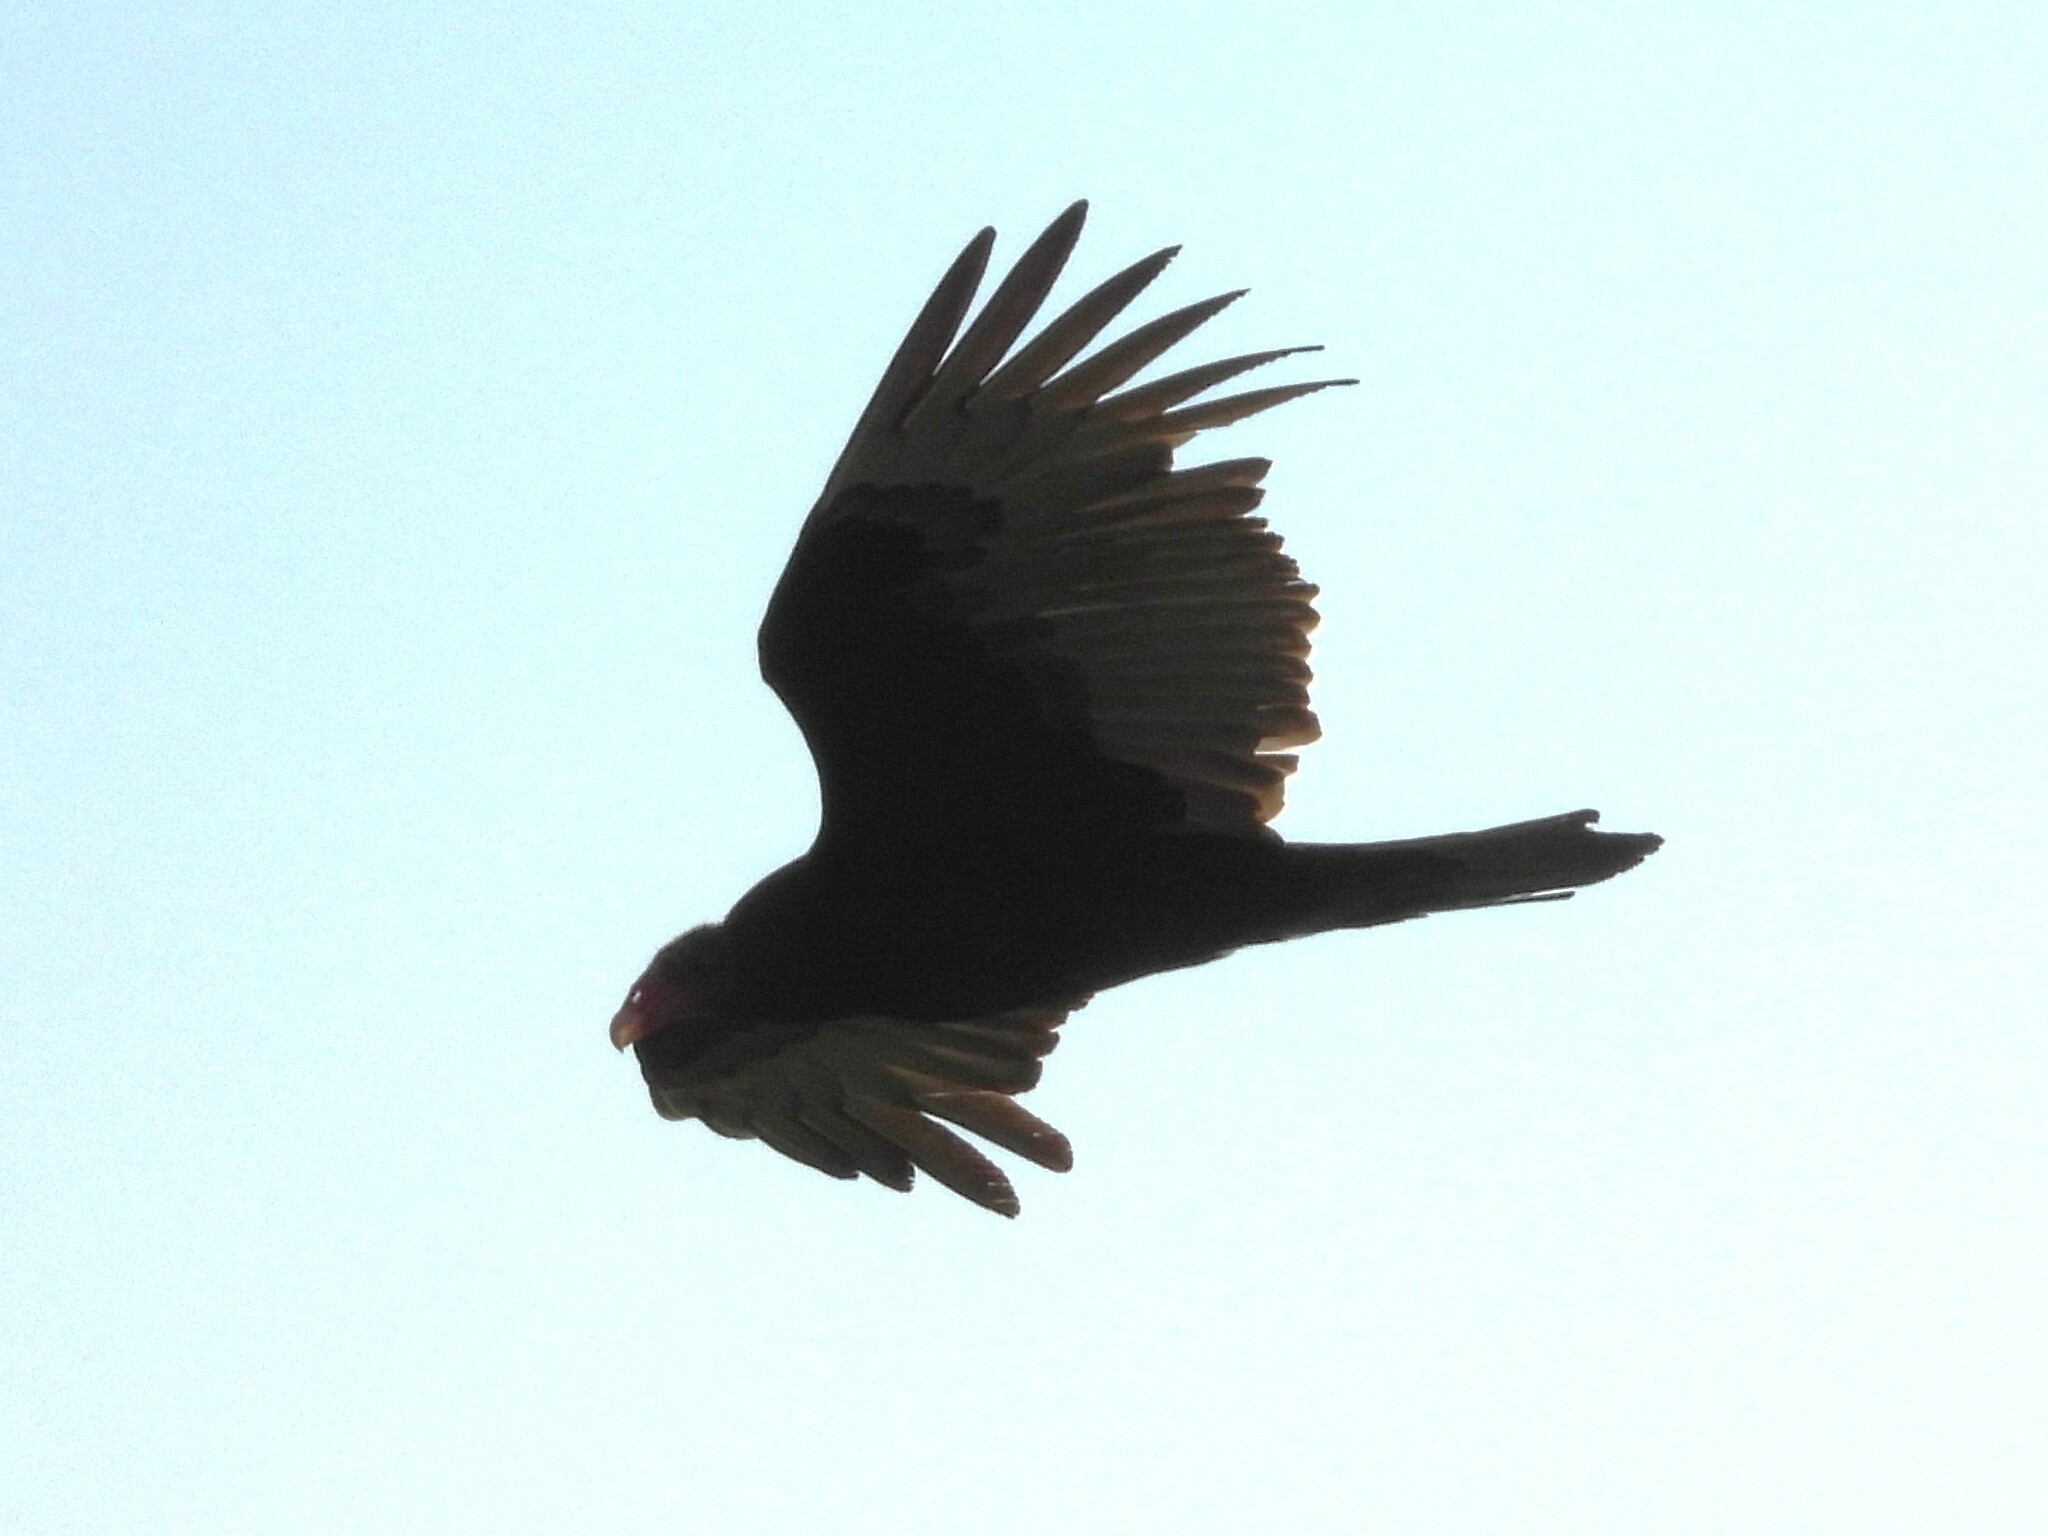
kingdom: Animalia
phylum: Chordata
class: Aves
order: Accipitriformes
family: Cathartidae
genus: Cathartes
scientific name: Cathartes aura
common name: Turkey vulture
